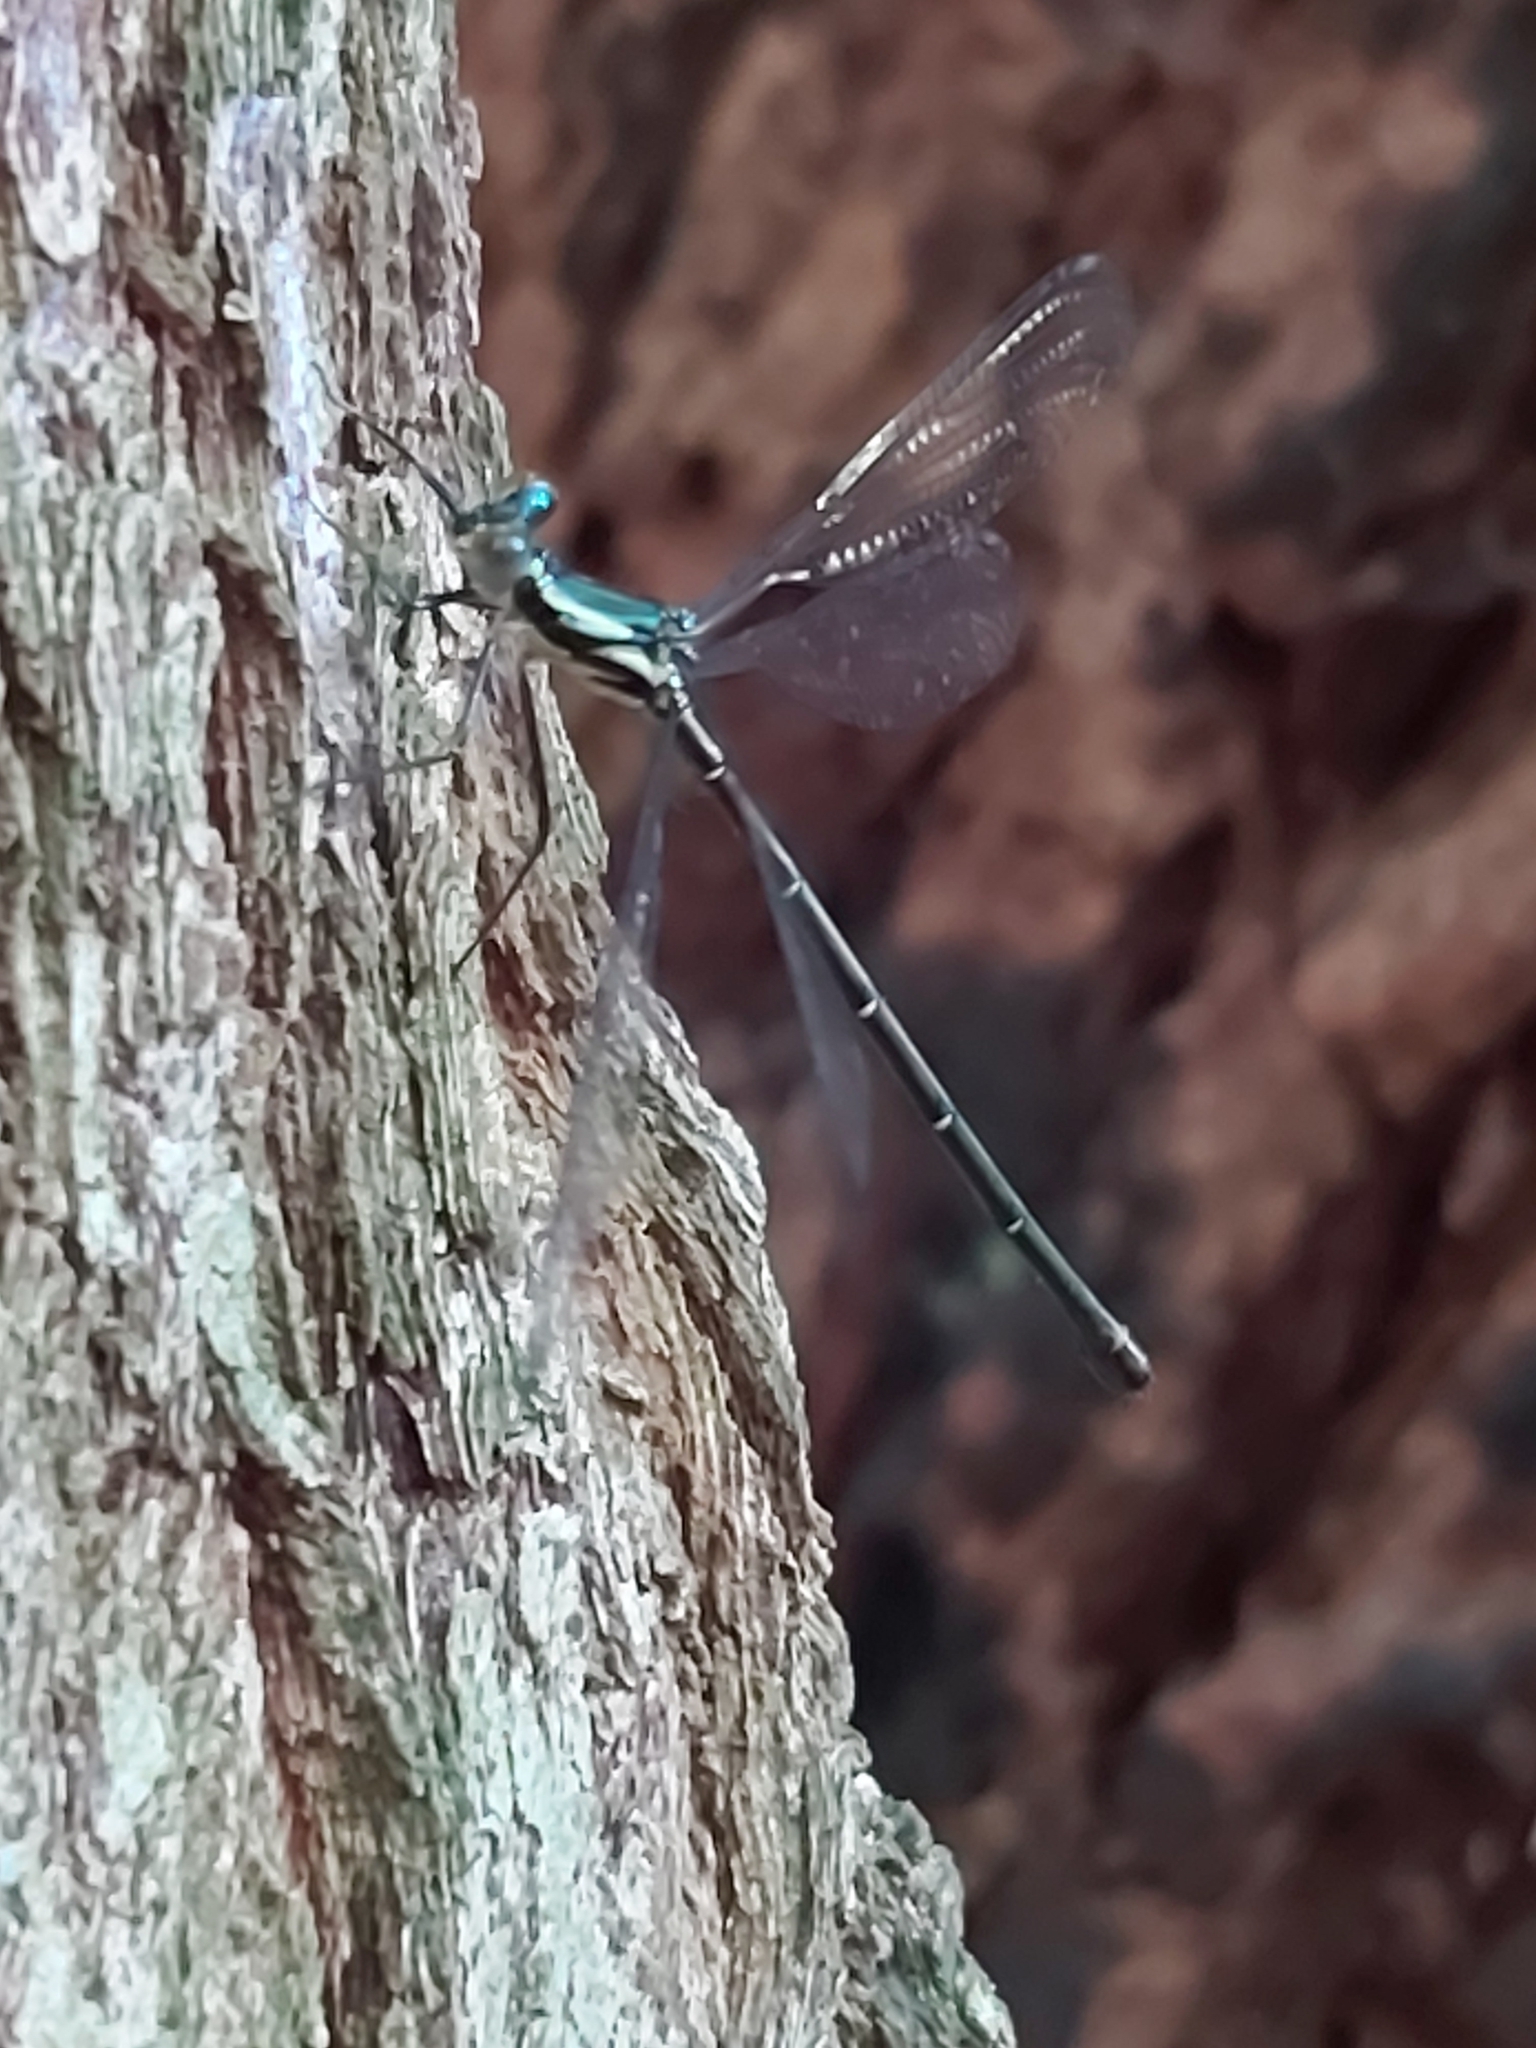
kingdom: Animalia
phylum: Arthropoda
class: Insecta
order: Odonata
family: Argiolestidae
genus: Austroargiolestes
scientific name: Austroargiolestes icteromelas
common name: Common flatwing
